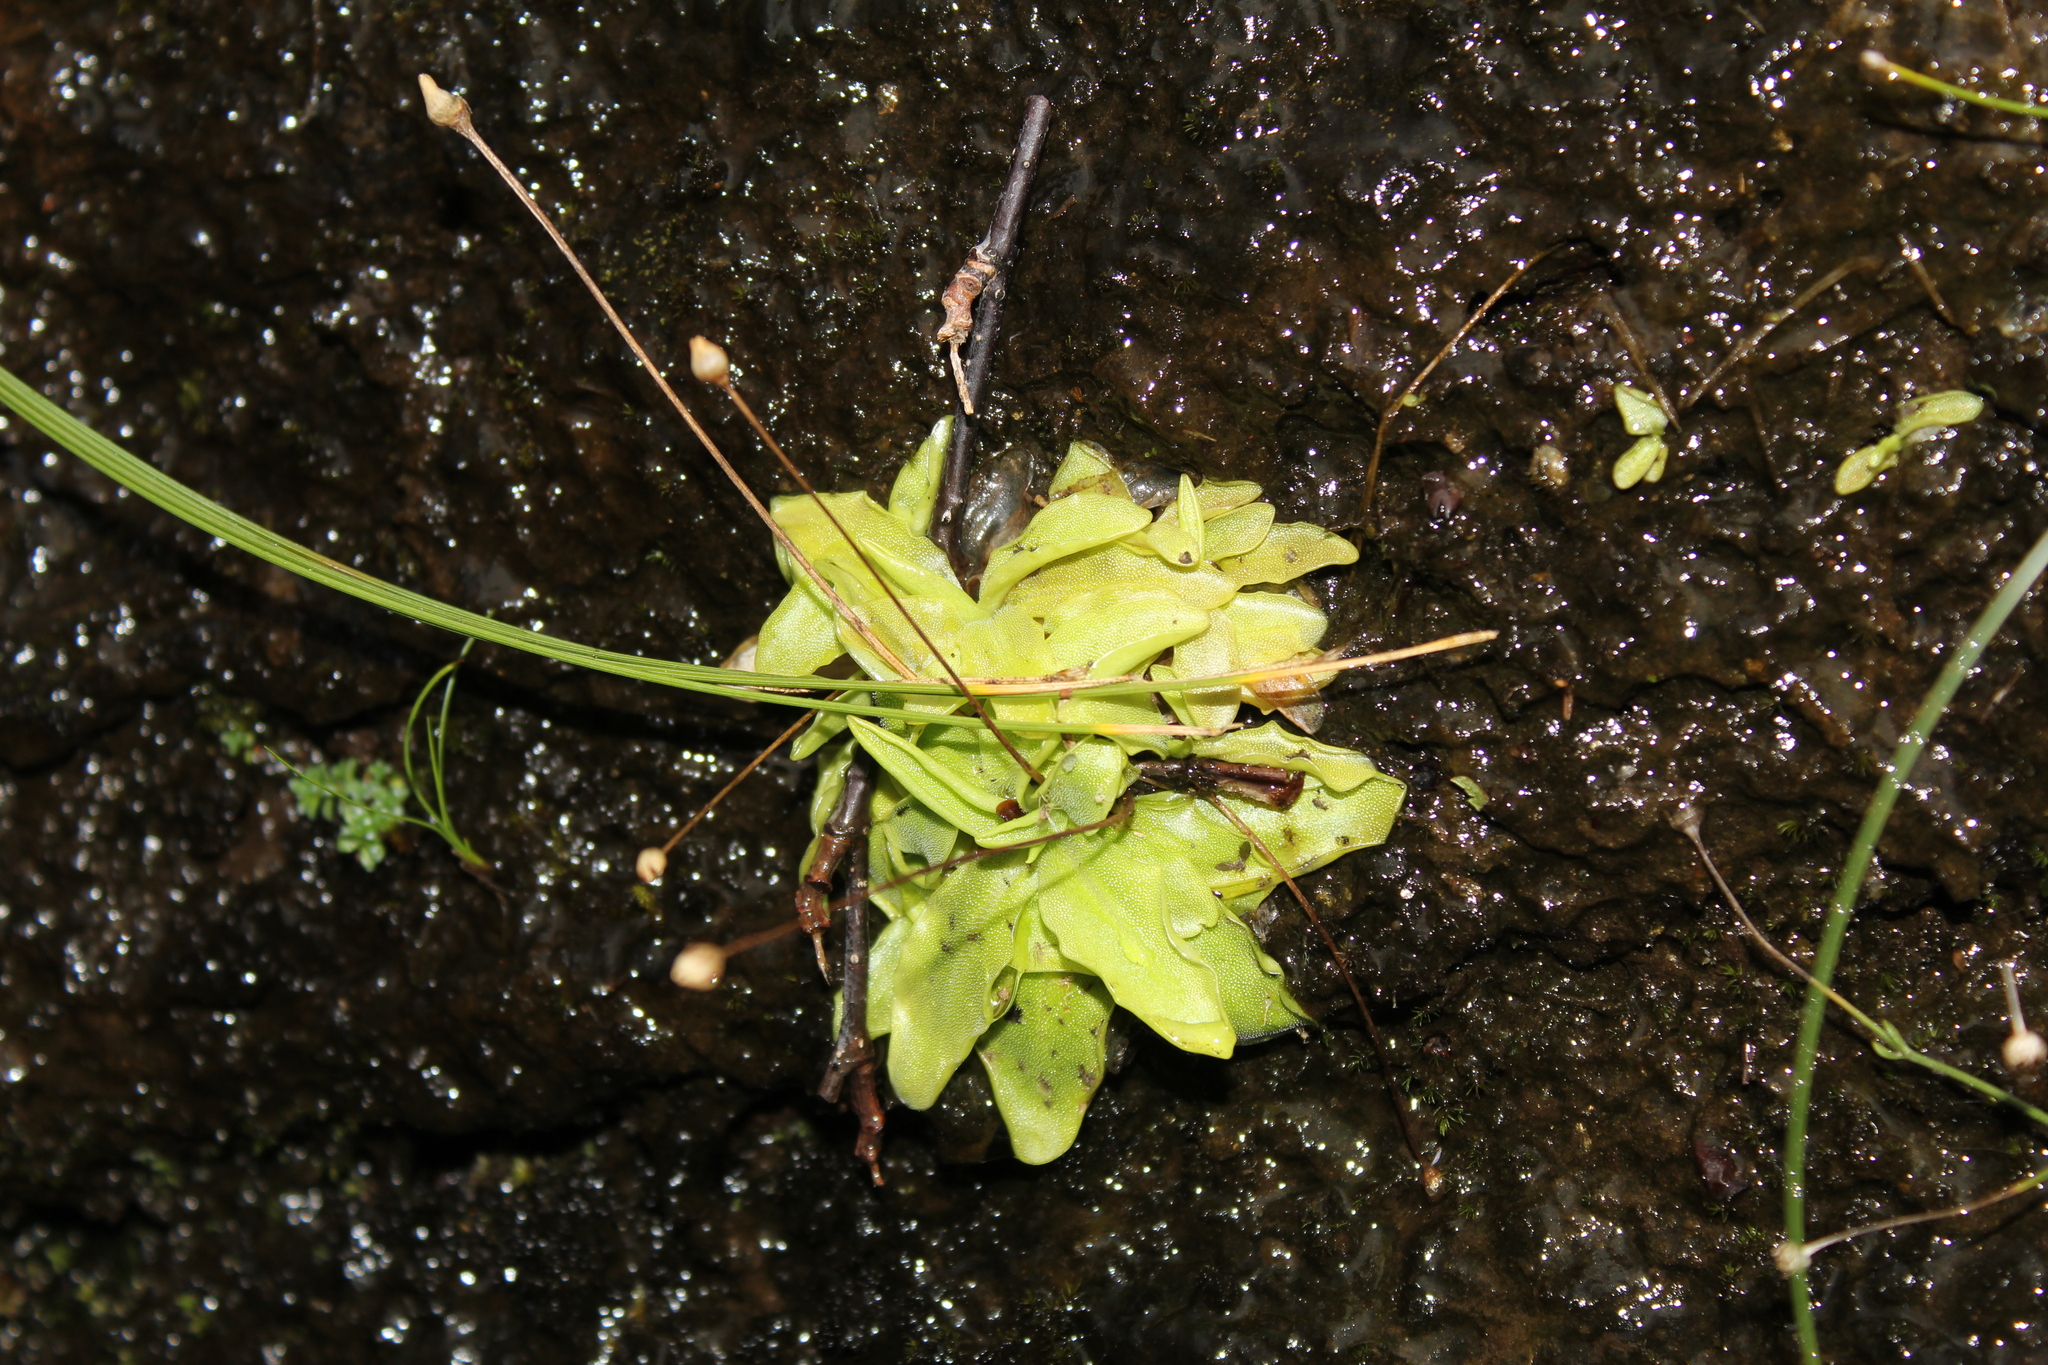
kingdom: Plantae
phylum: Tracheophyta
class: Magnoliopsida
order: Lamiales
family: Lentibulariaceae
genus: Pinguicula
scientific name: Pinguicula vulgaris
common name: Common butterwort
